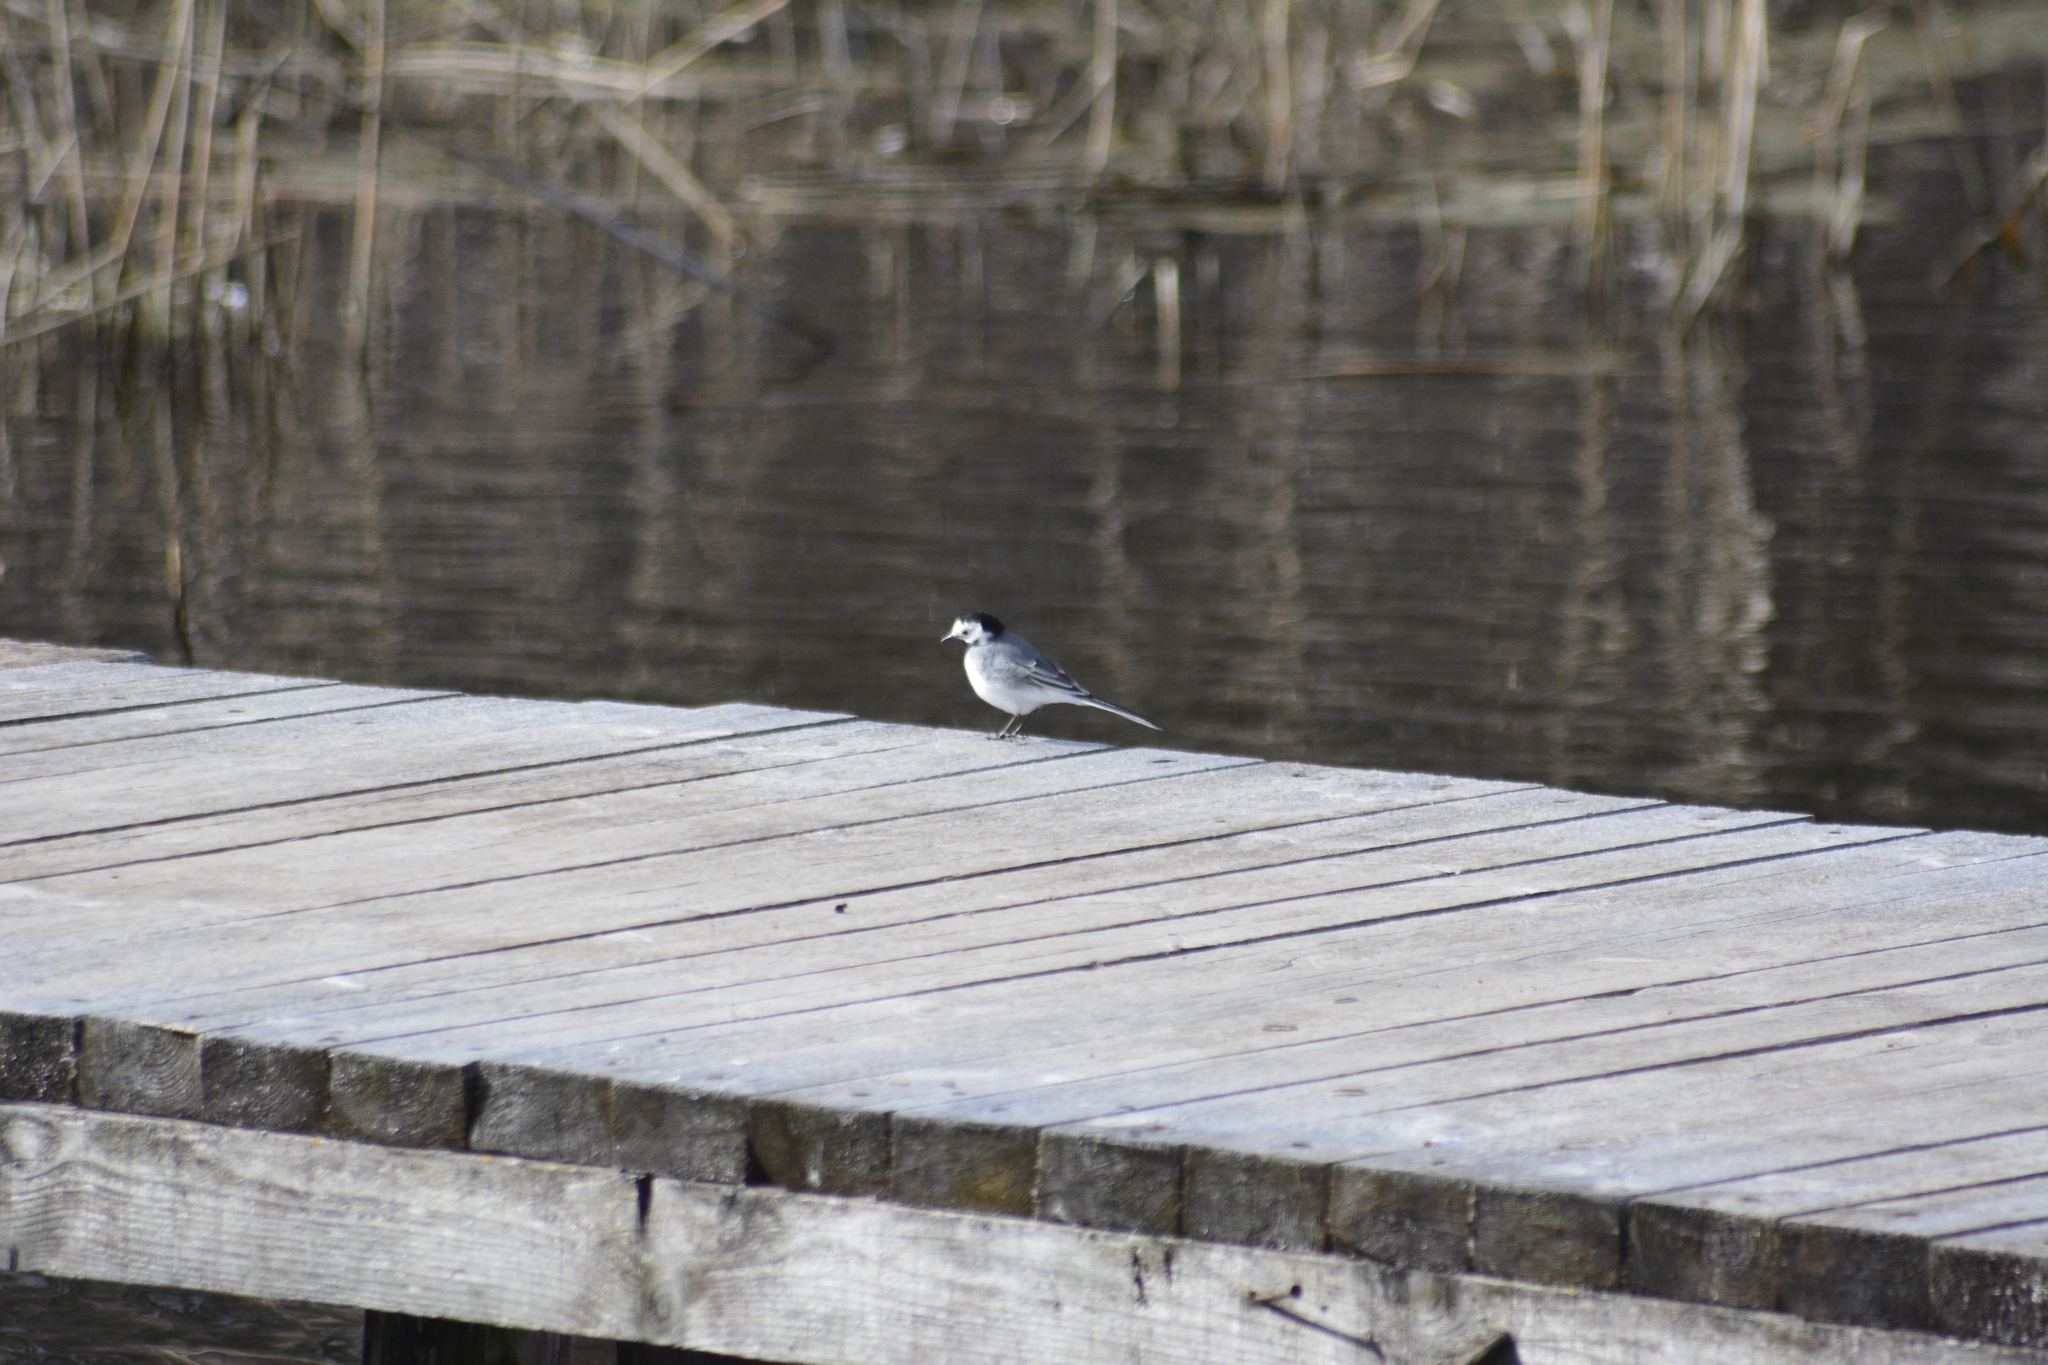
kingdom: Animalia
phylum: Chordata
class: Aves
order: Passeriformes
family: Motacillidae
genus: Motacilla
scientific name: Motacilla alba
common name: White wagtail
